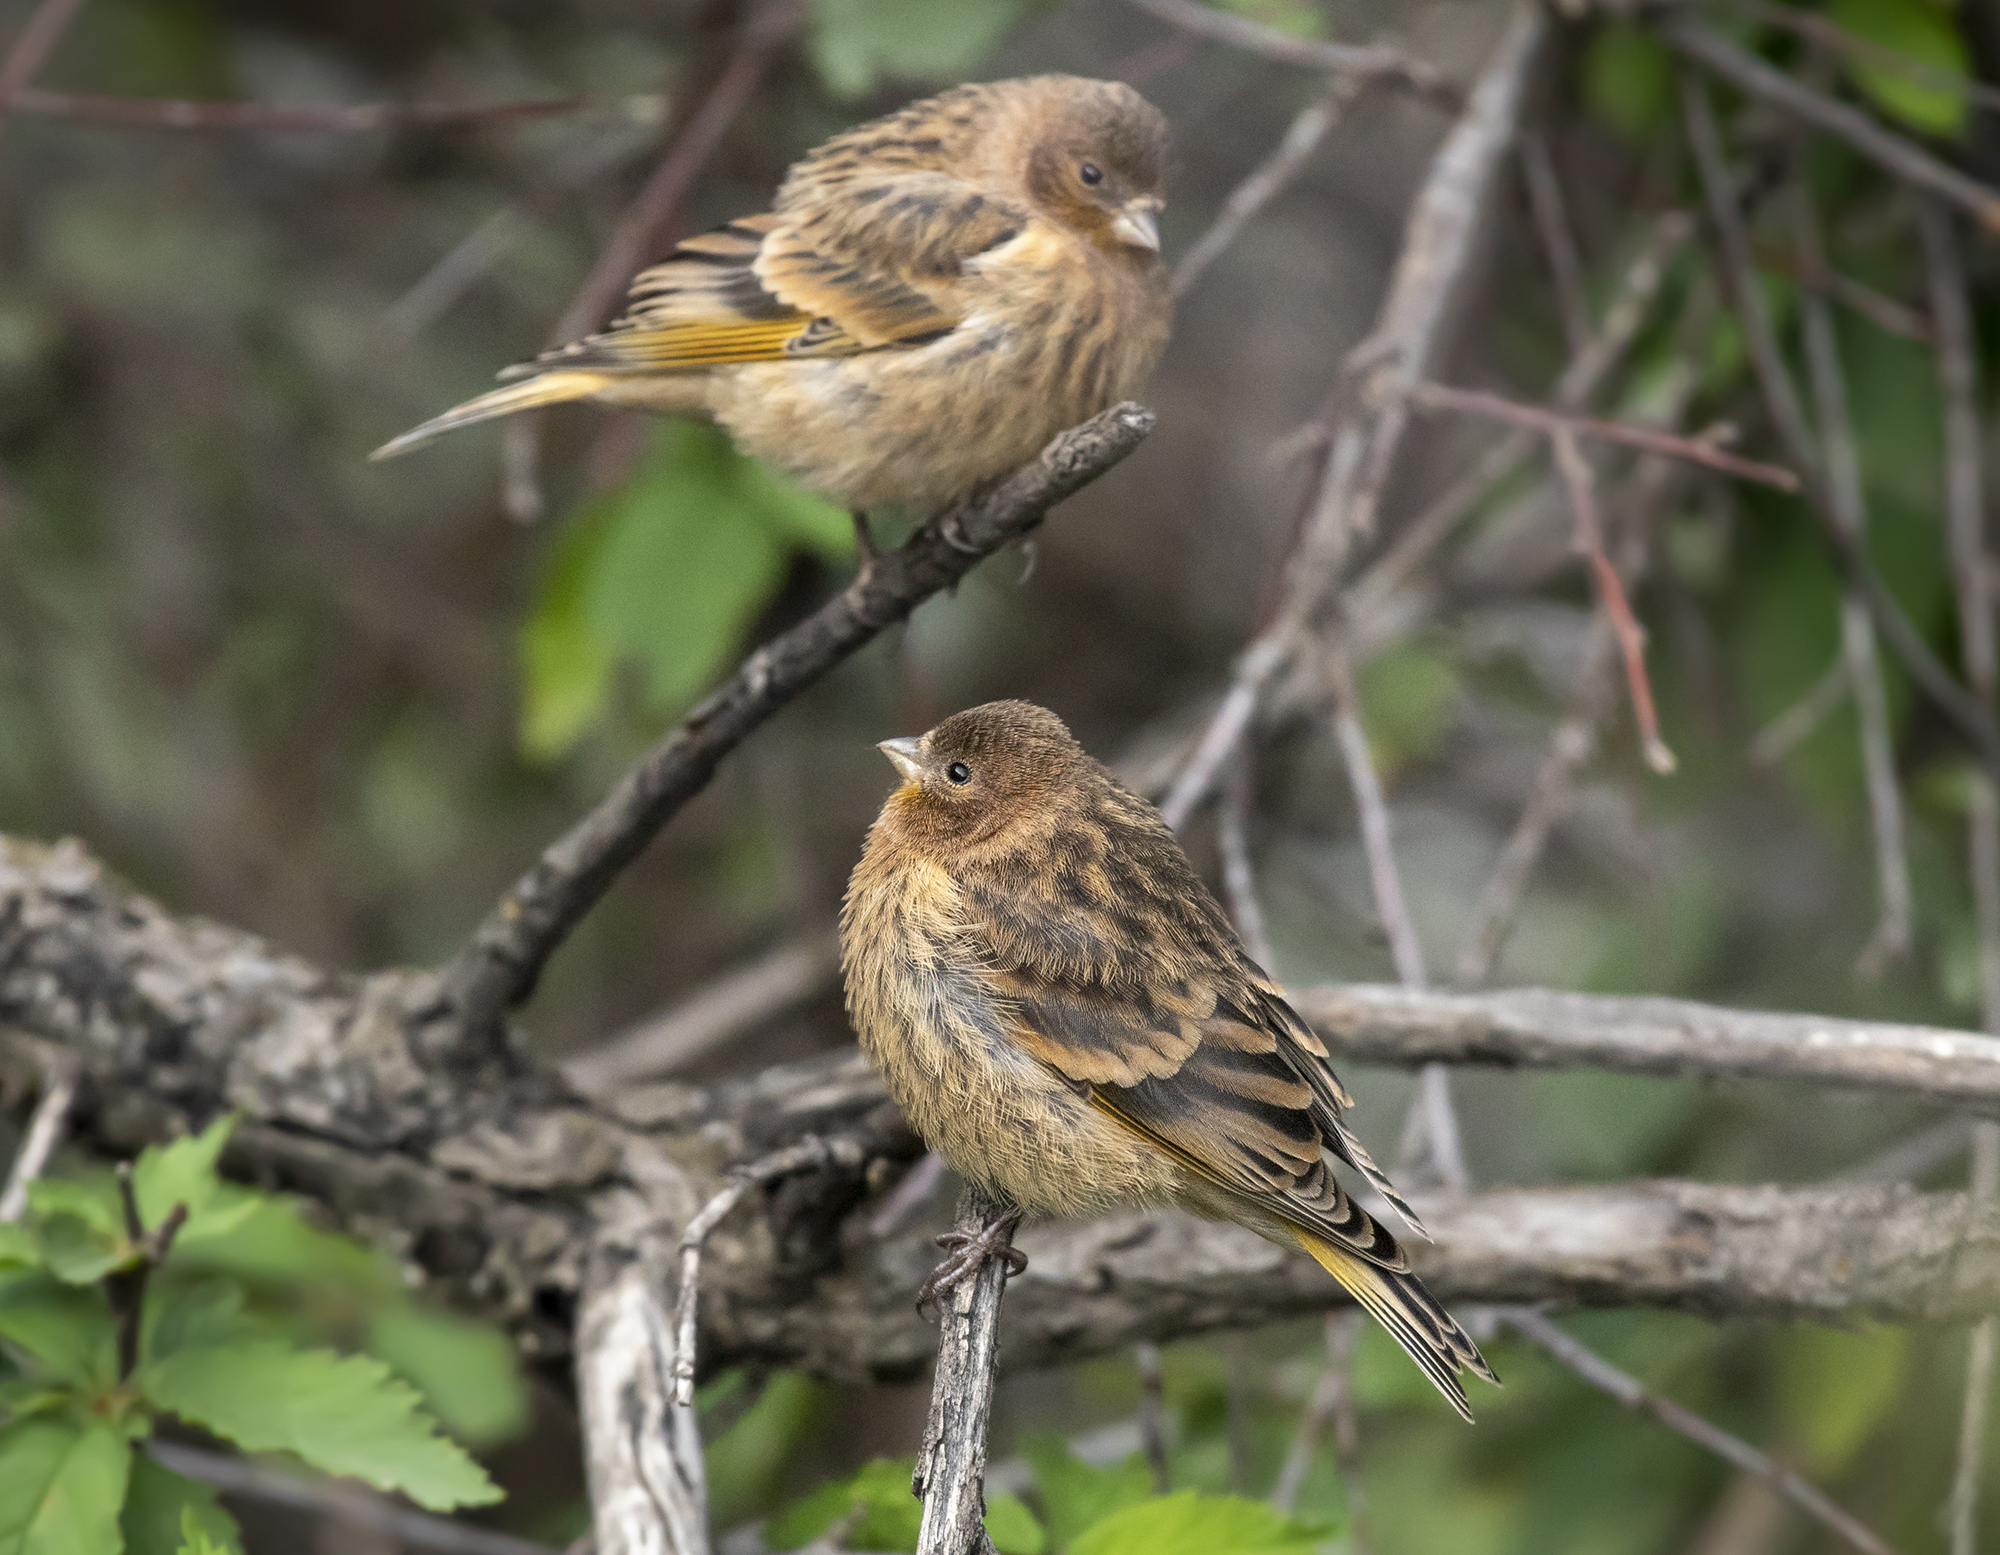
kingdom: Animalia
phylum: Chordata
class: Aves
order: Passeriformes
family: Fringillidae
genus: Serinus
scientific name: Serinus pusillus
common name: Red-fronted serin
